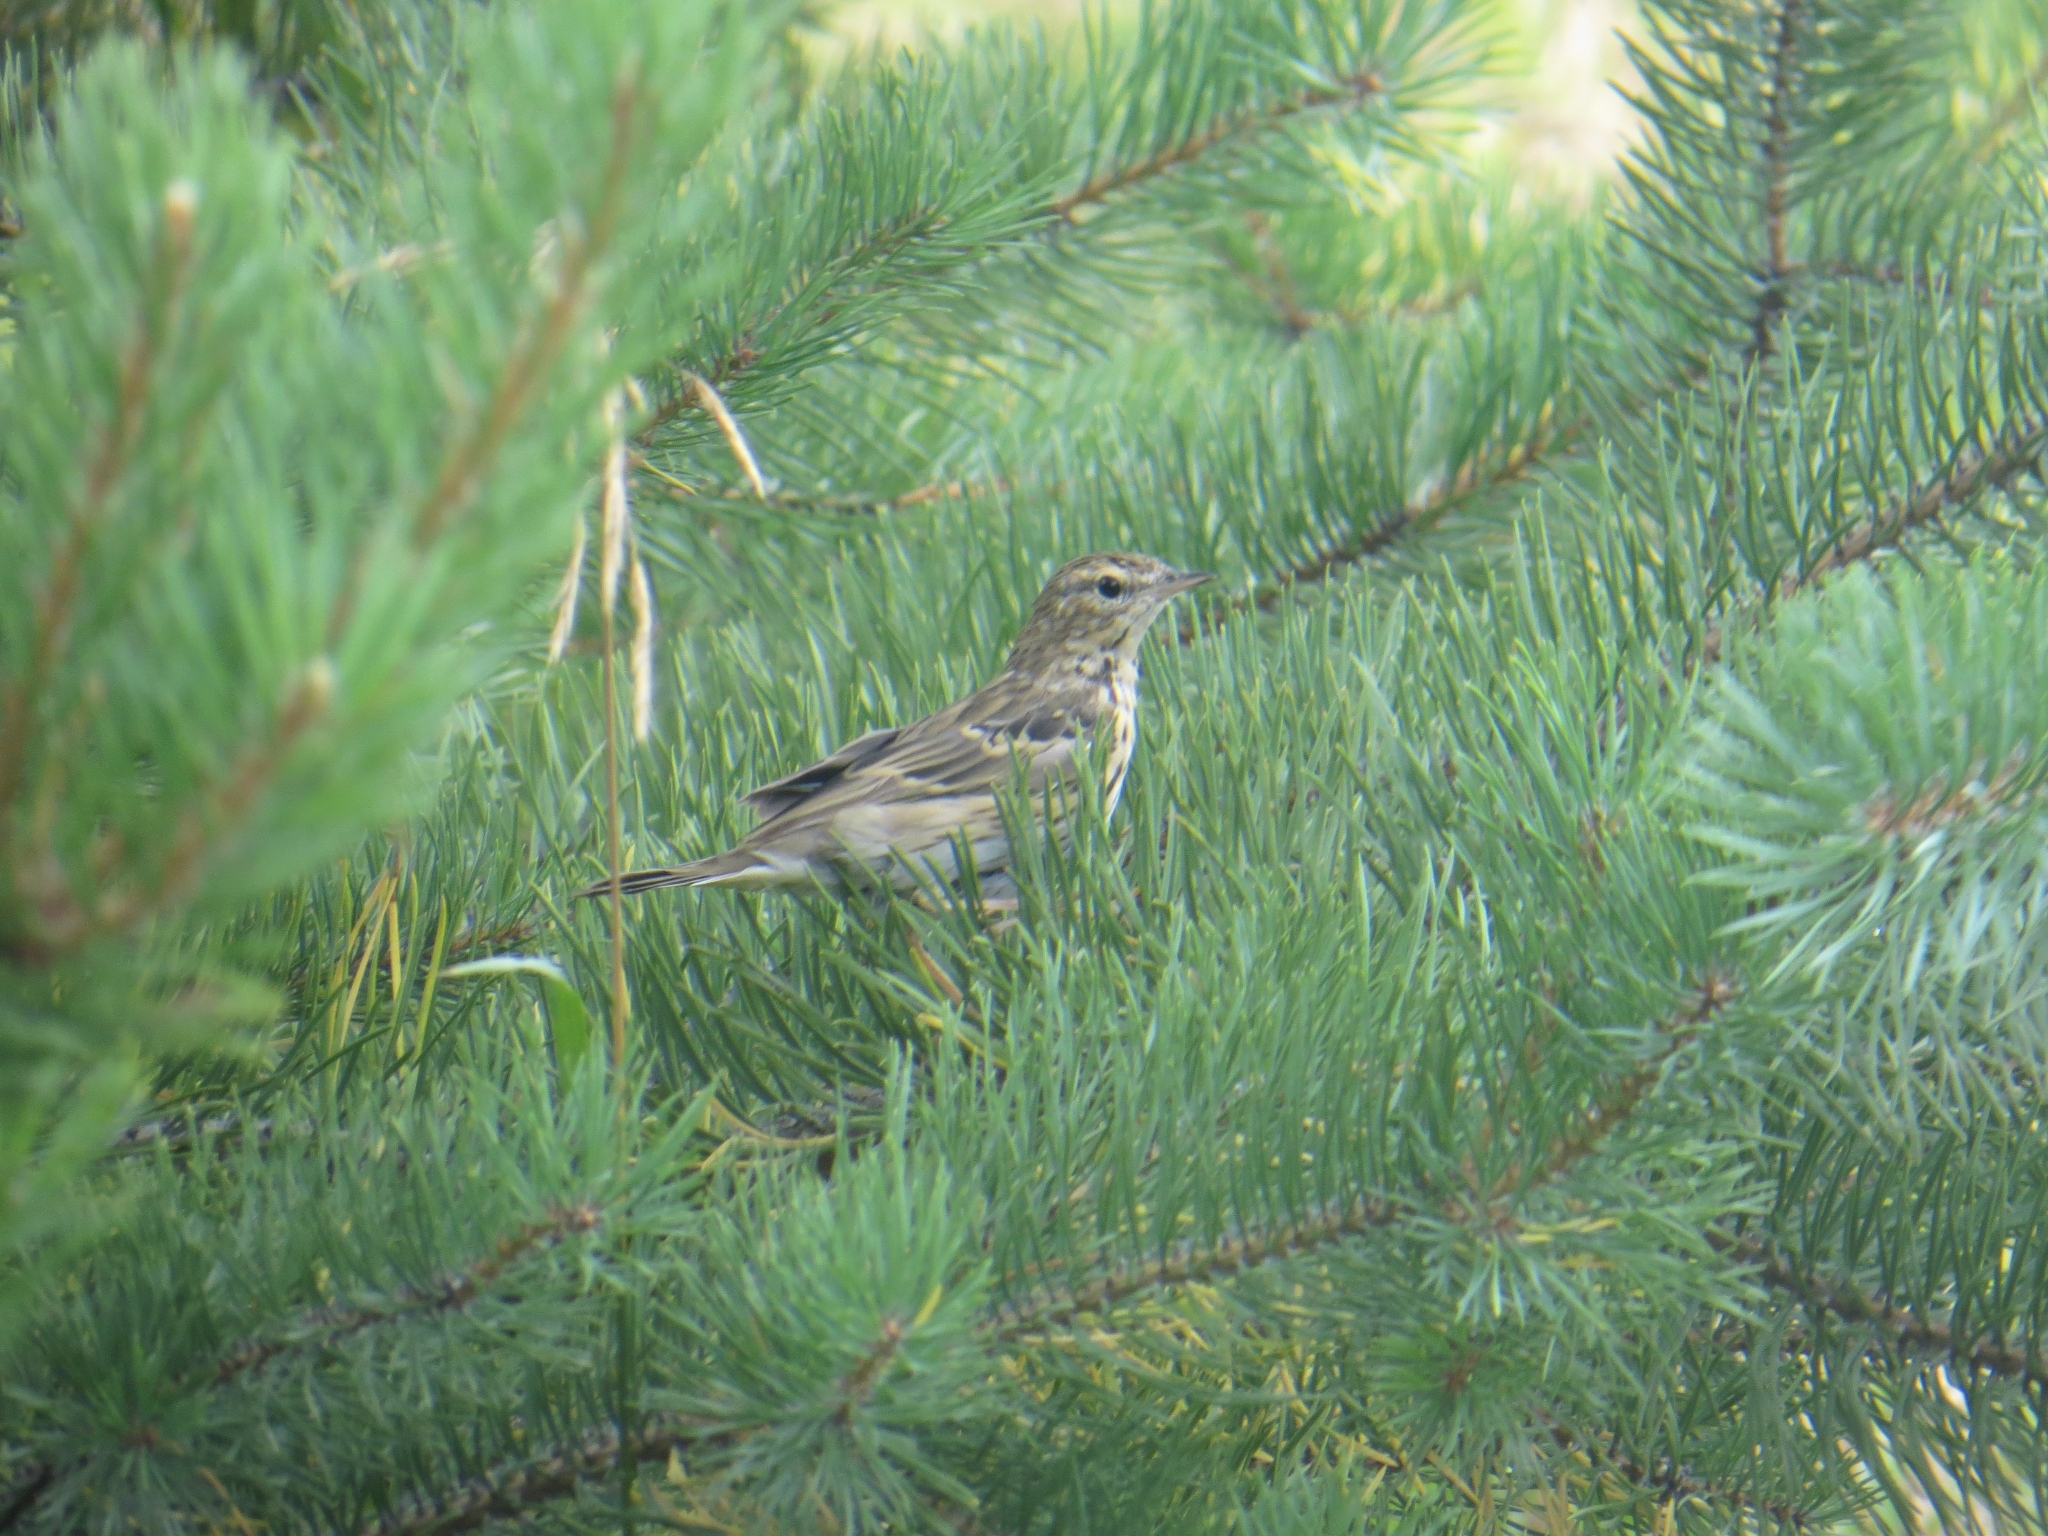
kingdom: Animalia
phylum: Chordata
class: Aves
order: Passeriformes
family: Motacillidae
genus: Anthus
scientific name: Anthus trivialis
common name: Tree pipit
